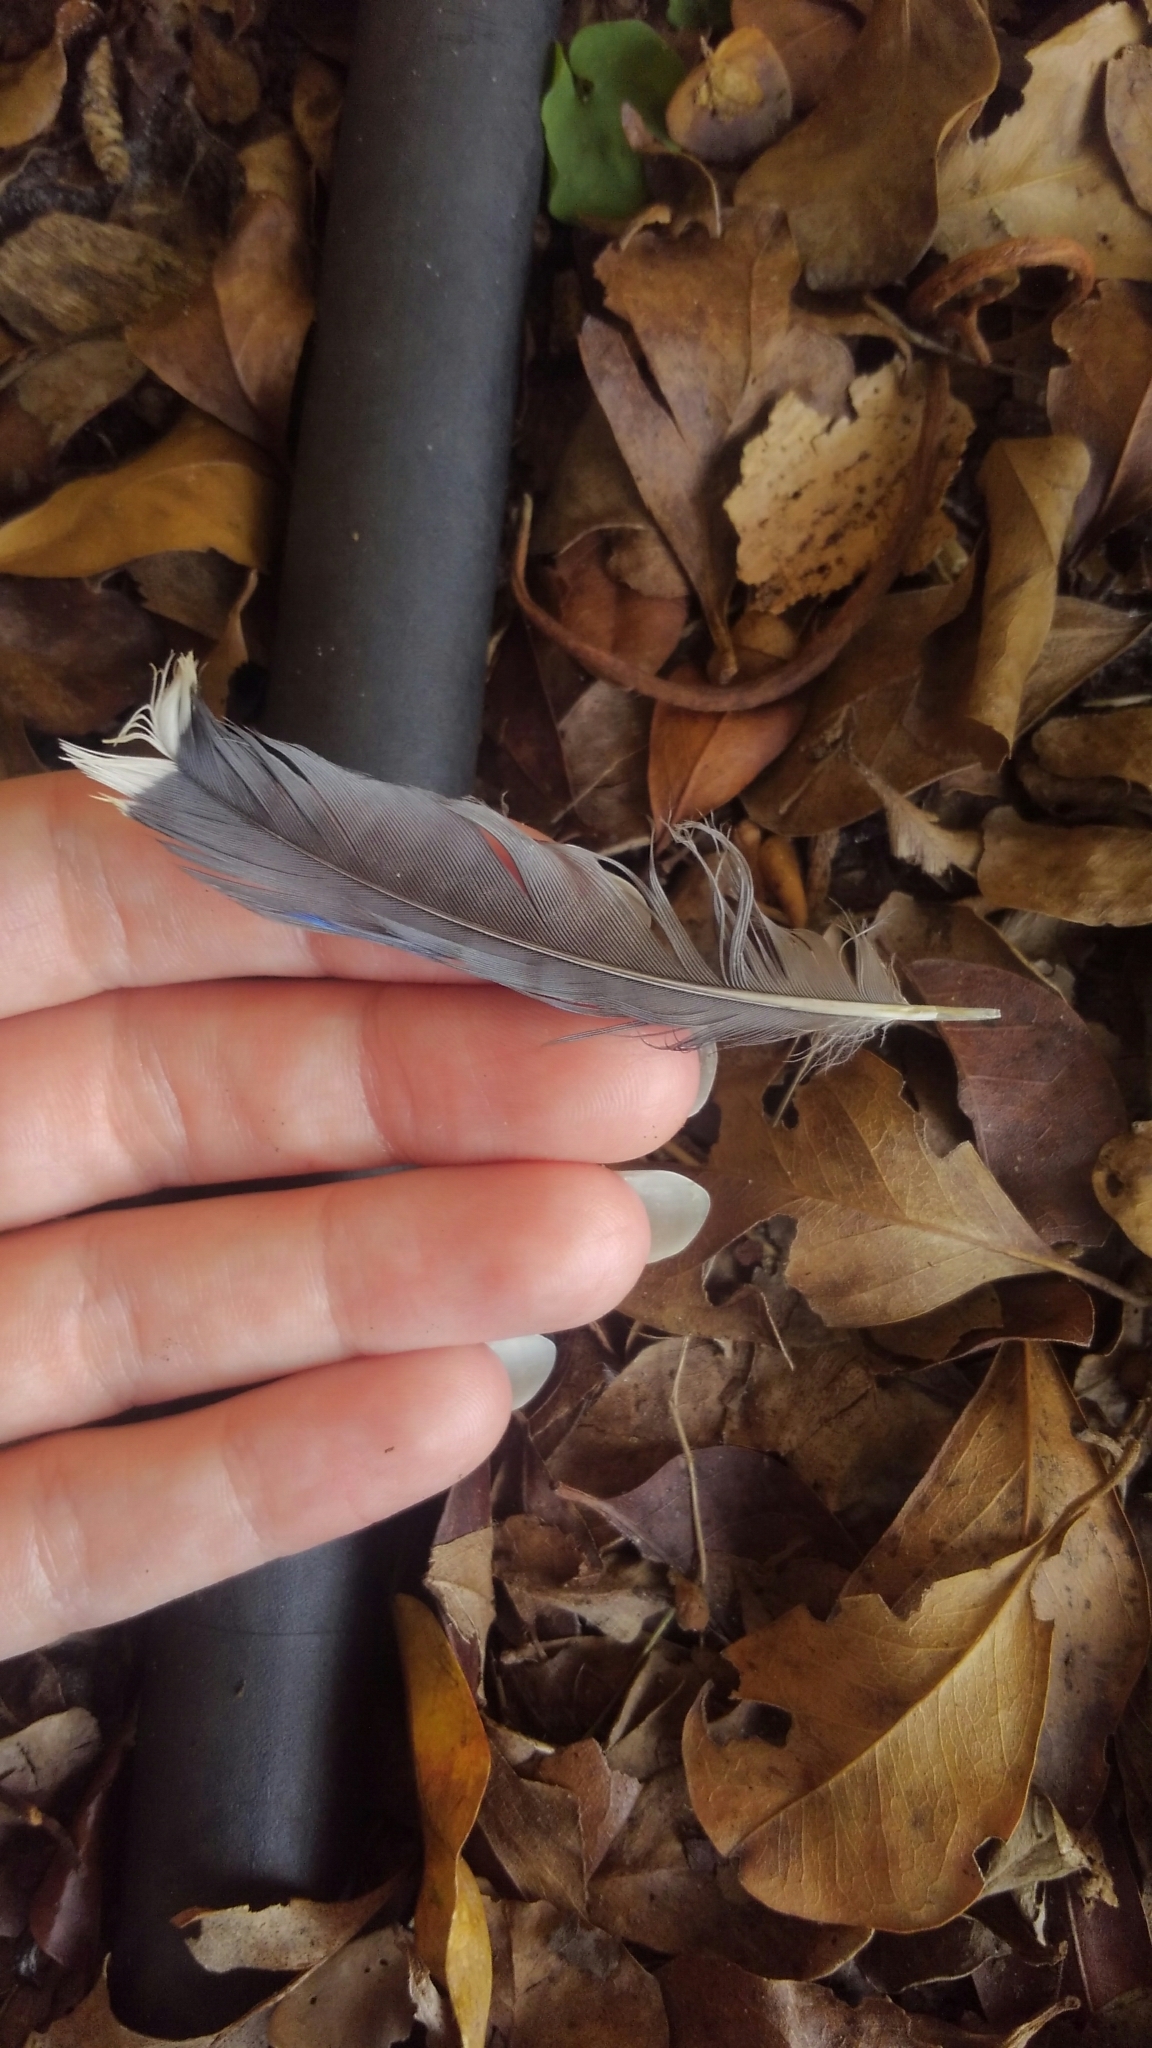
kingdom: Animalia
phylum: Chordata
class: Aves
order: Passeriformes
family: Corvidae
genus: Cyanocitta
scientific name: Cyanocitta cristata
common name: Blue jay
